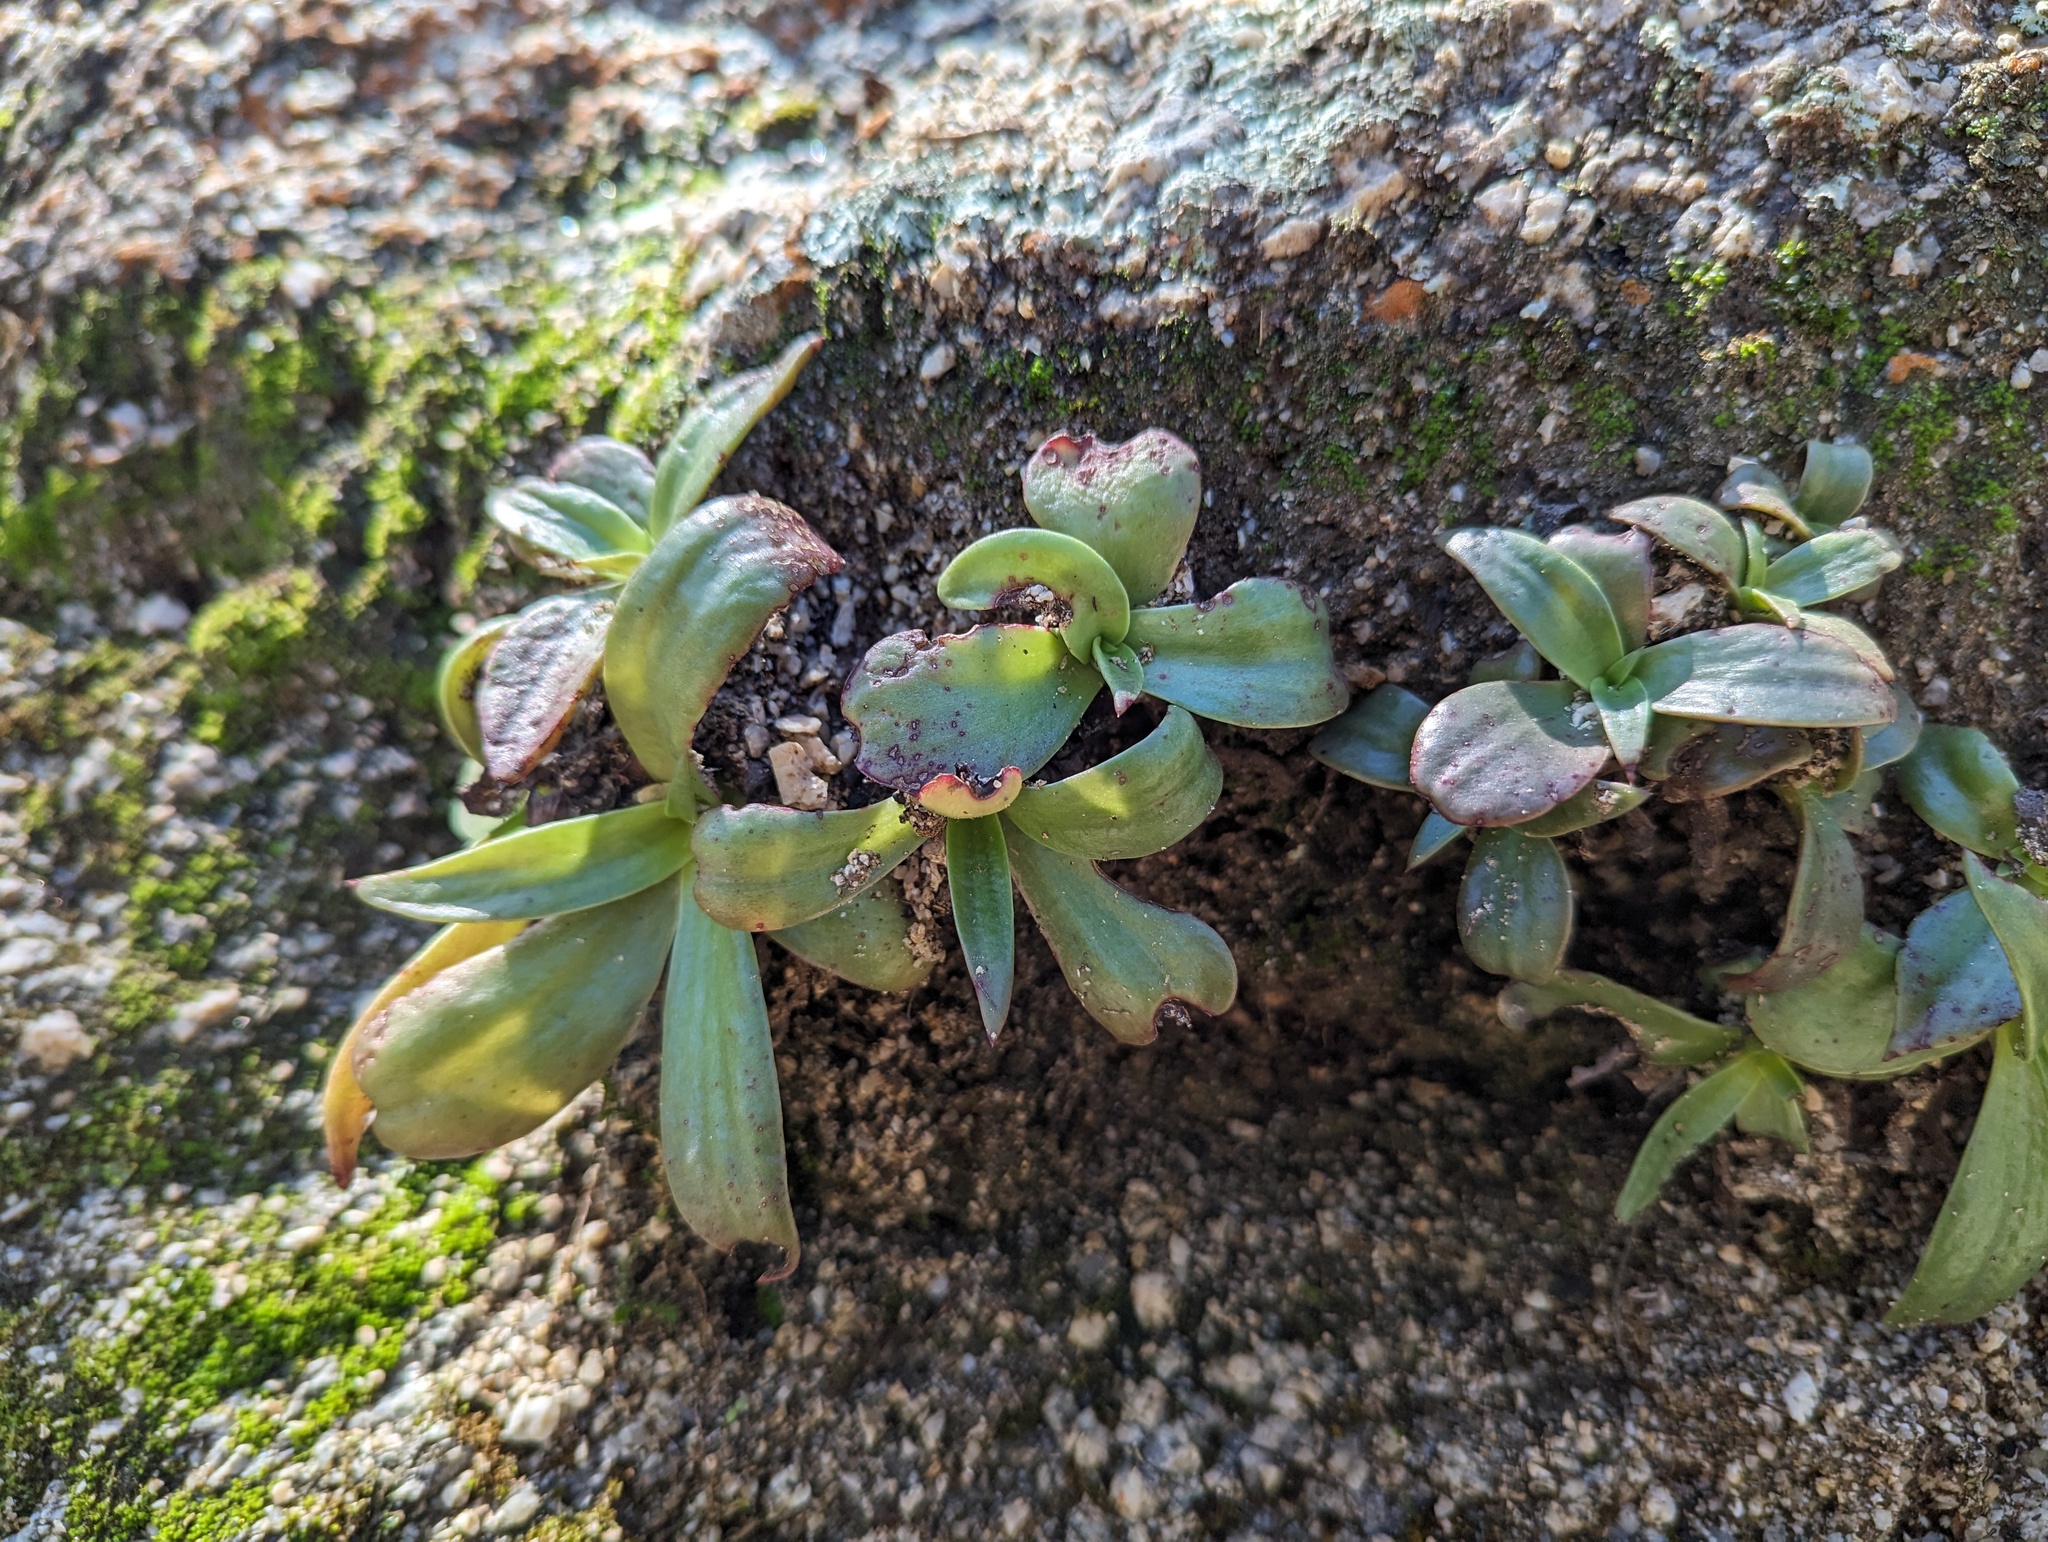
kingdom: Plantae
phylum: Tracheophyta
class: Magnoliopsida
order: Saxifragales
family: Crassulaceae
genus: Dudleya
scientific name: Dudleya nubigena
